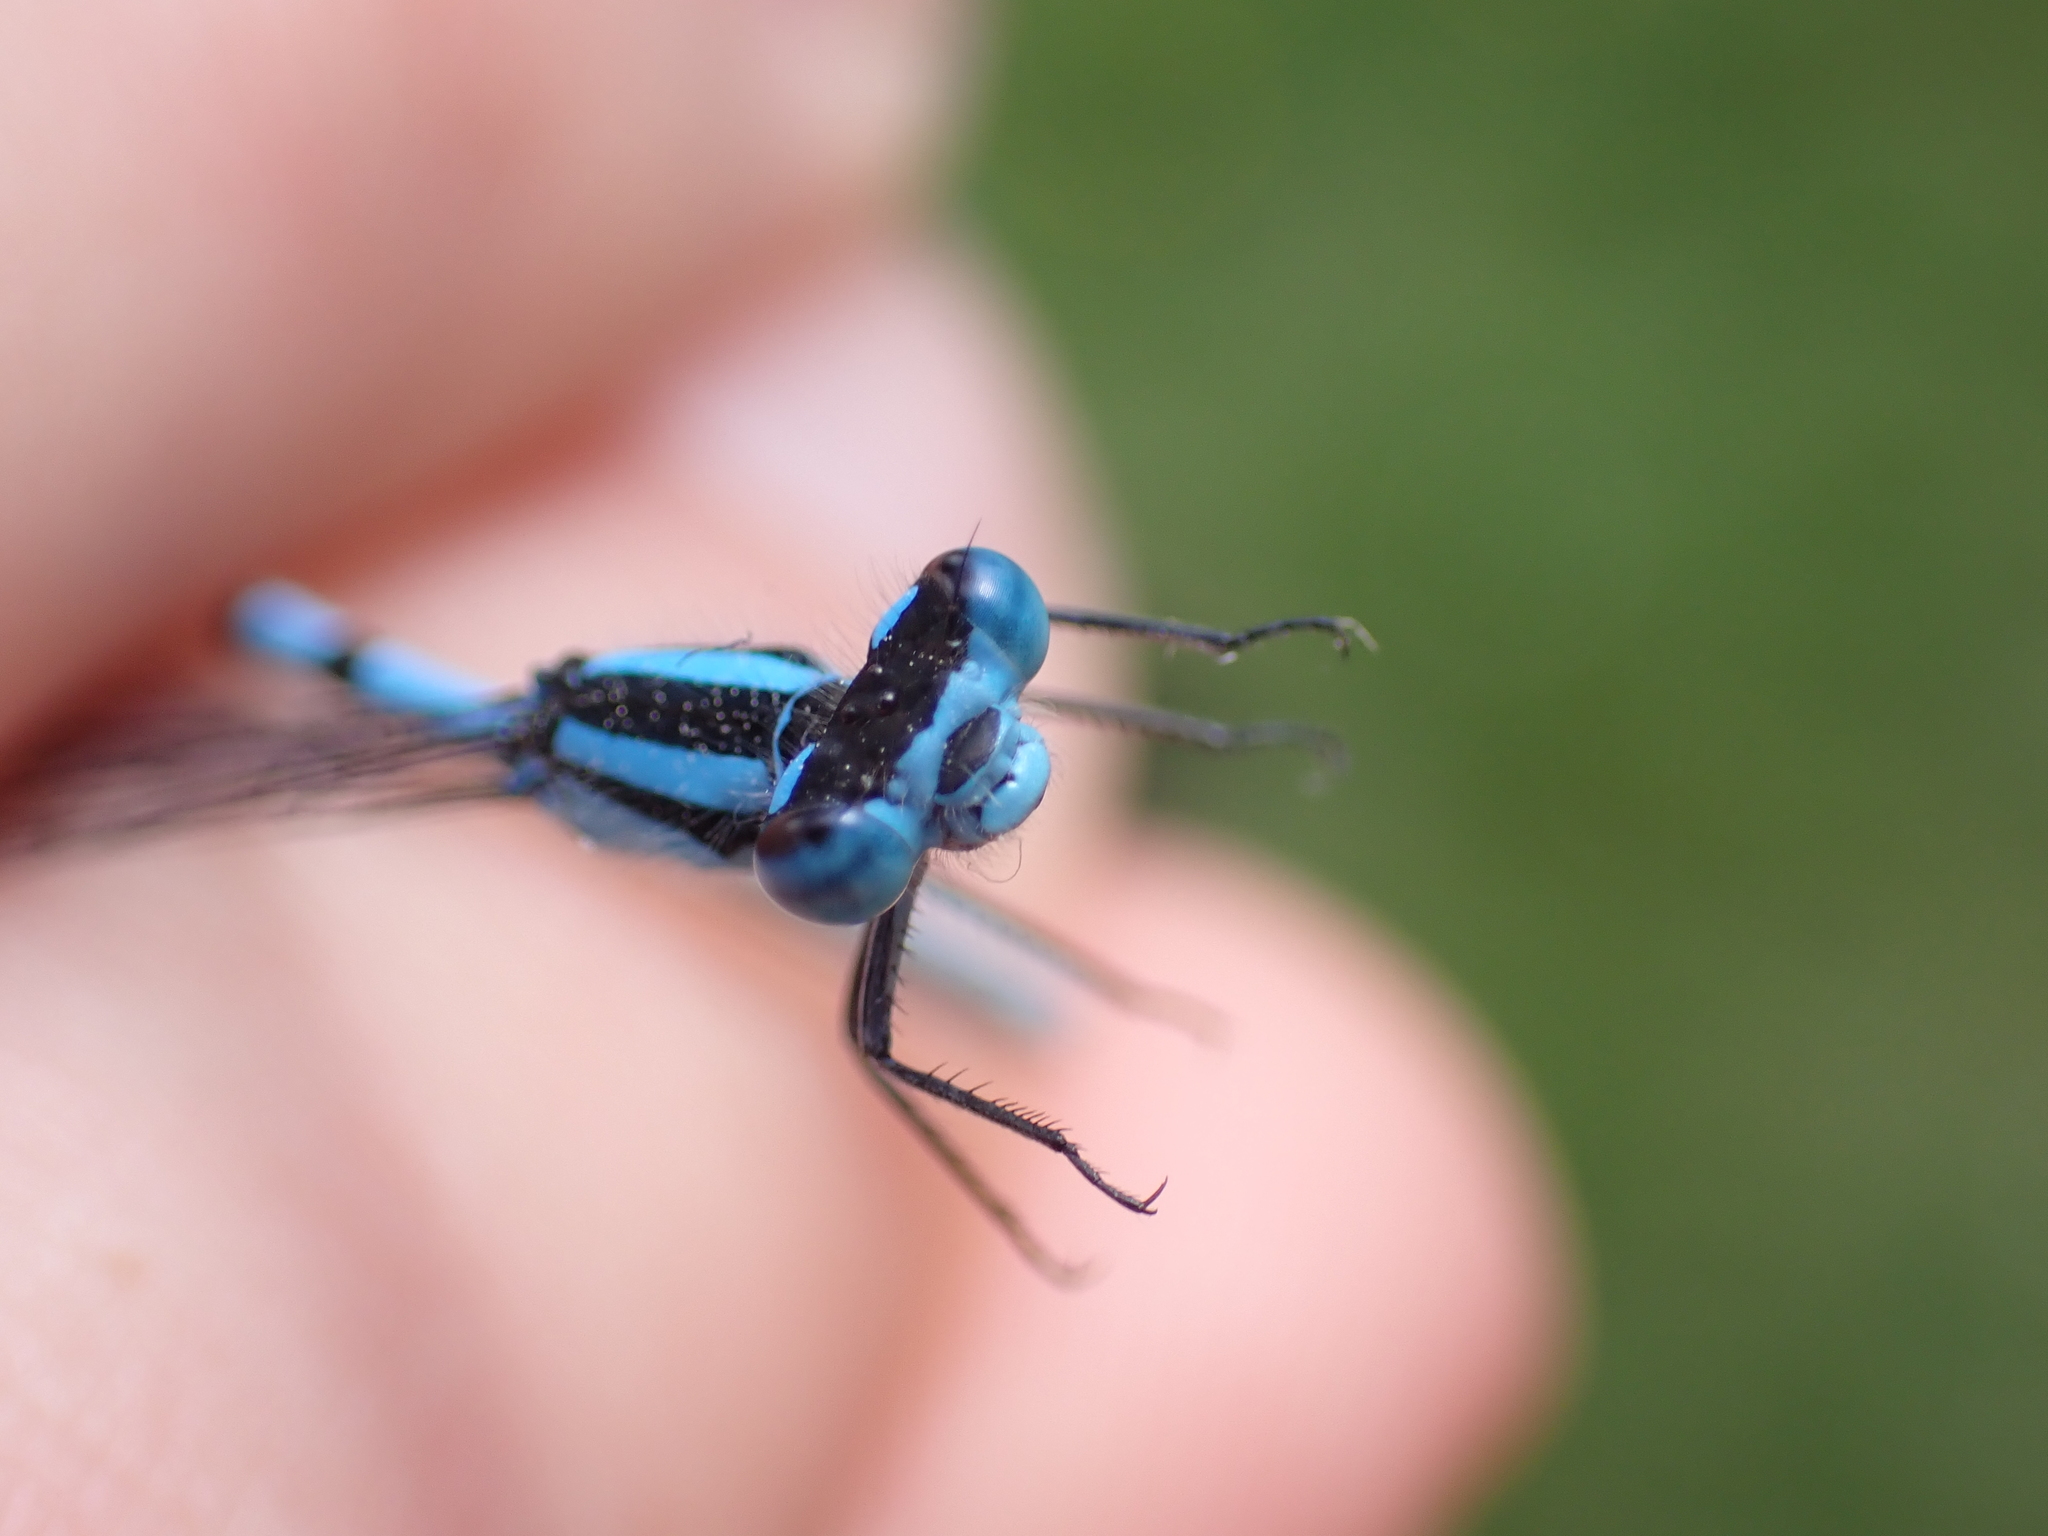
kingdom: Animalia
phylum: Arthropoda
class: Insecta
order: Odonata
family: Coenagrionidae
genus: Enallagma
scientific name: Enallagma cyathigerum
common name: Common blue damselfly
